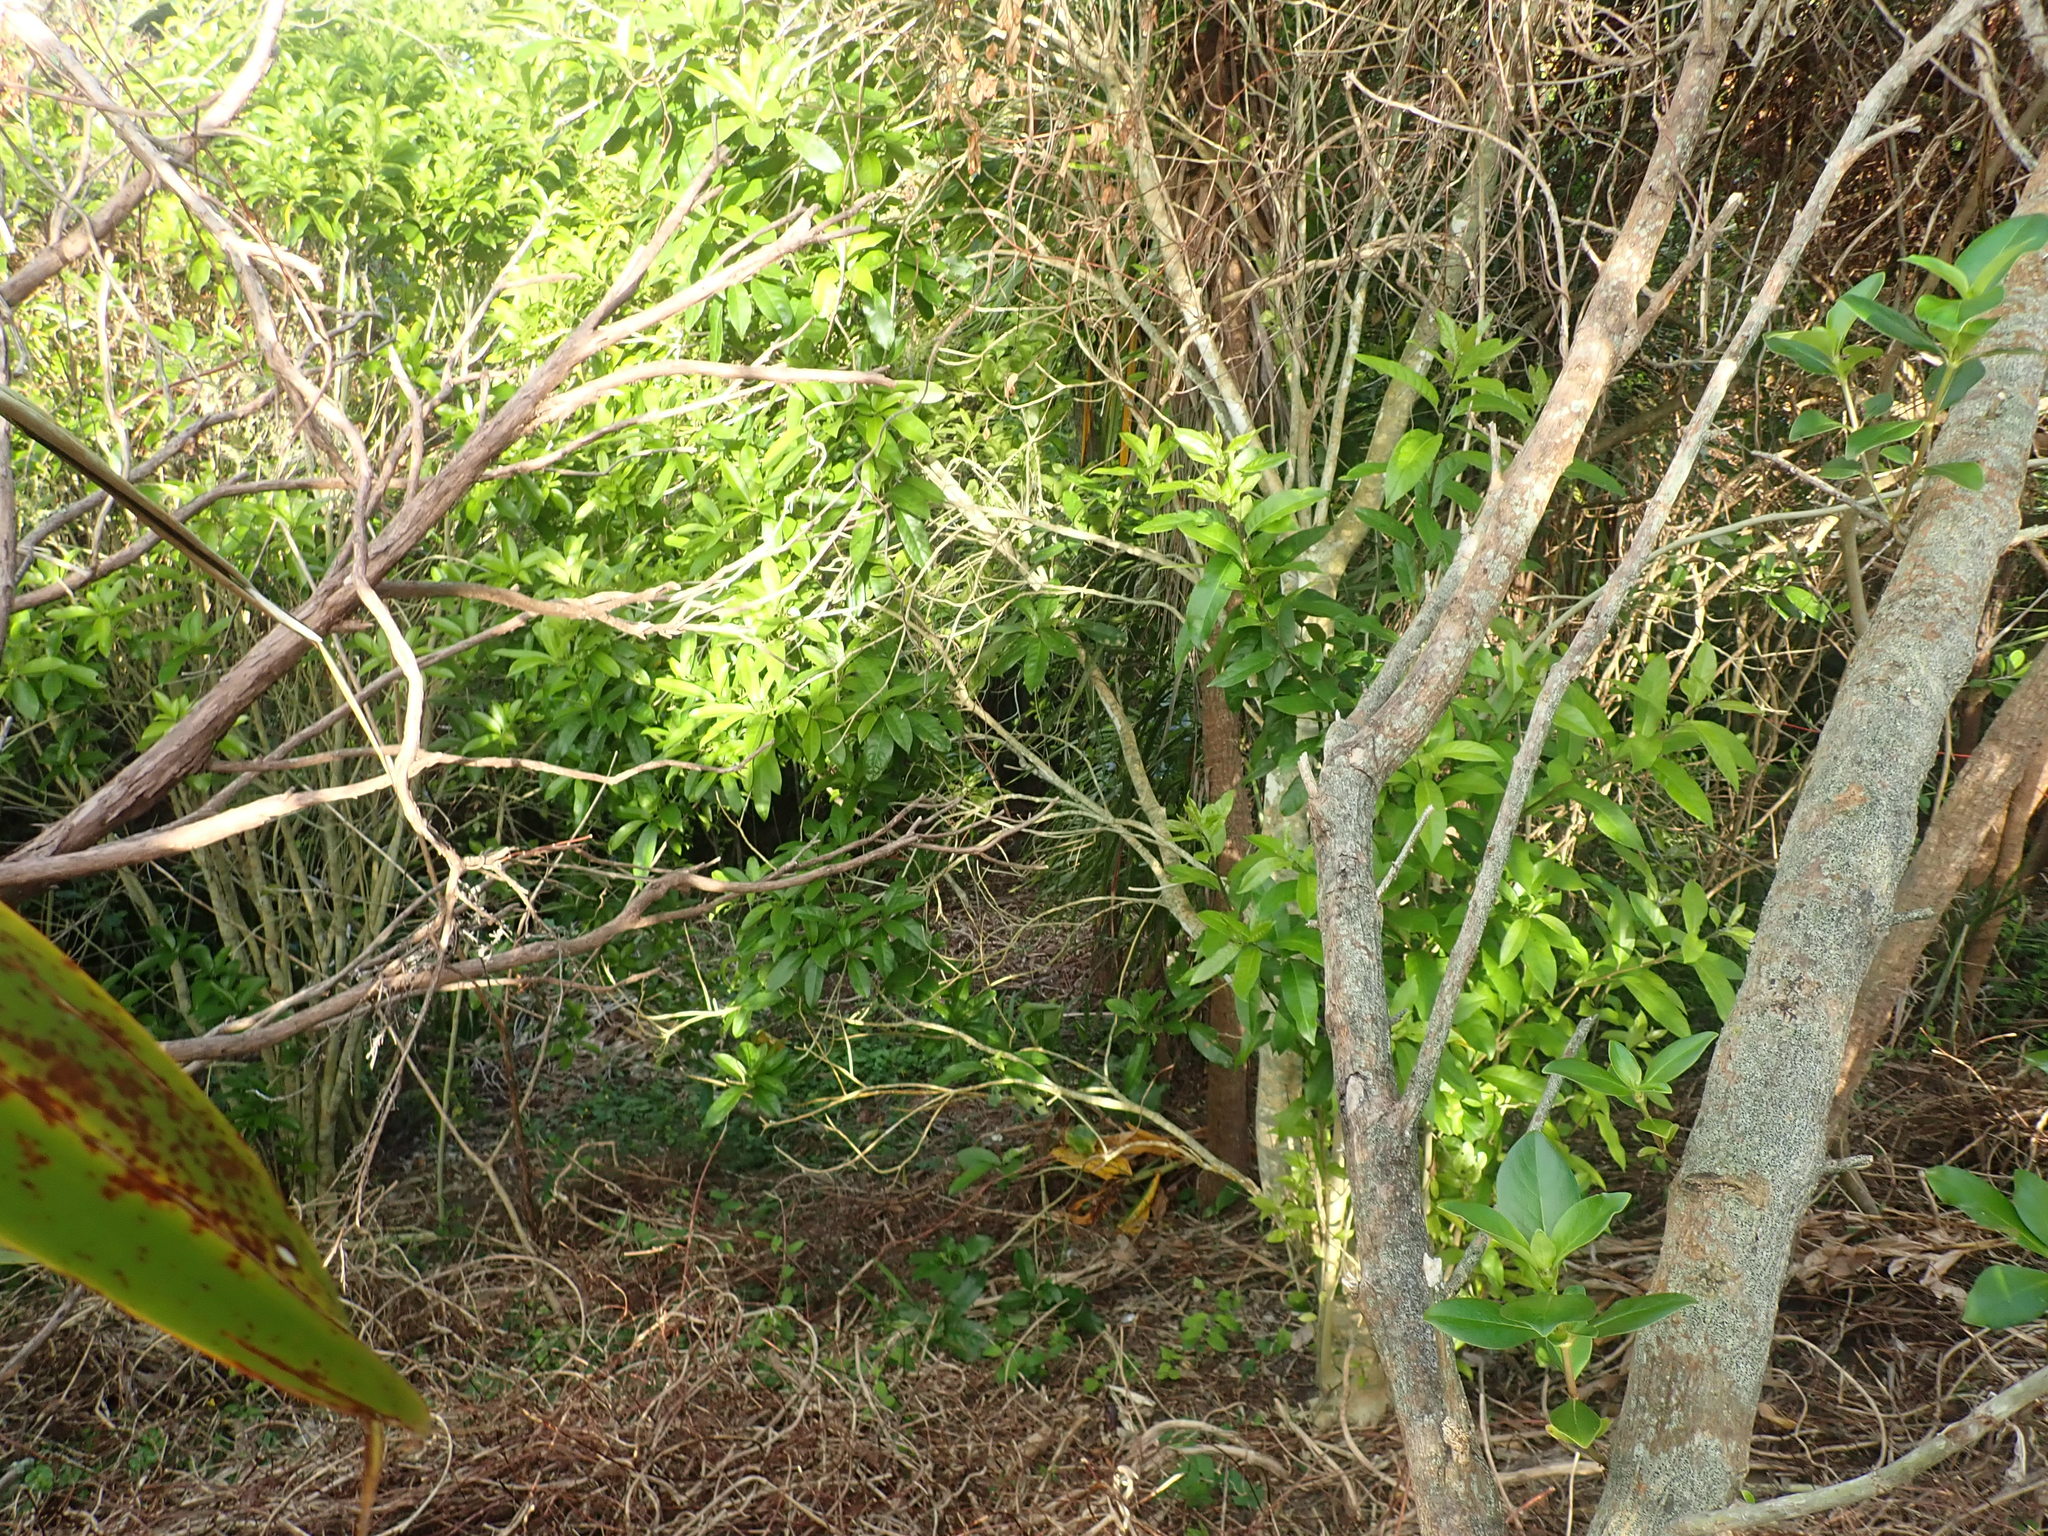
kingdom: Plantae
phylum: Tracheophyta
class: Magnoliopsida
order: Malpighiales
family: Violaceae
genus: Melicytus
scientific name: Melicytus ramiflorus
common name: Mahoe
